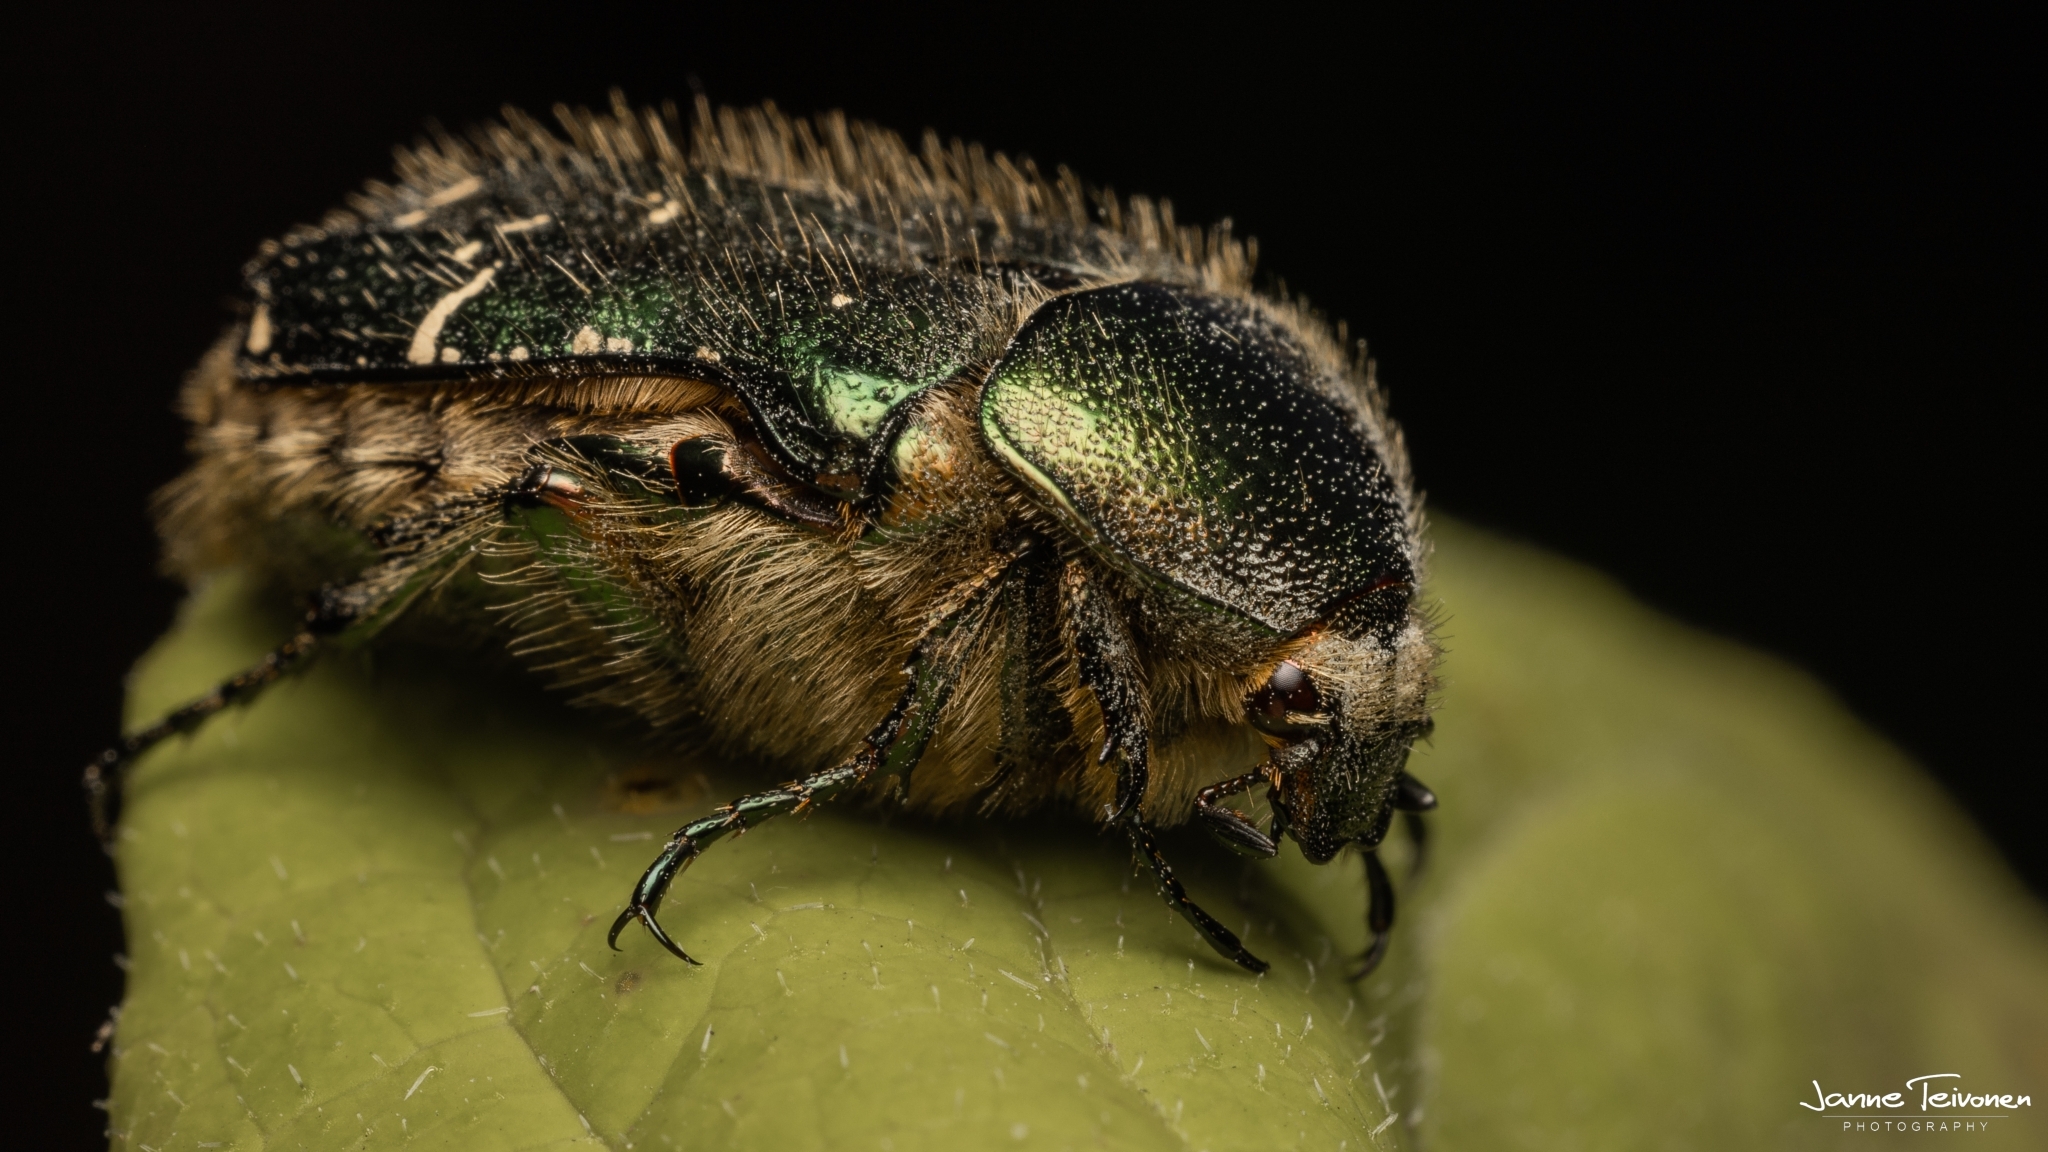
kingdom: Animalia
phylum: Arthropoda
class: Insecta
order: Coleoptera
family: Scarabaeidae
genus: Cetonia
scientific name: Cetonia aurata
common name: Rose chafer
